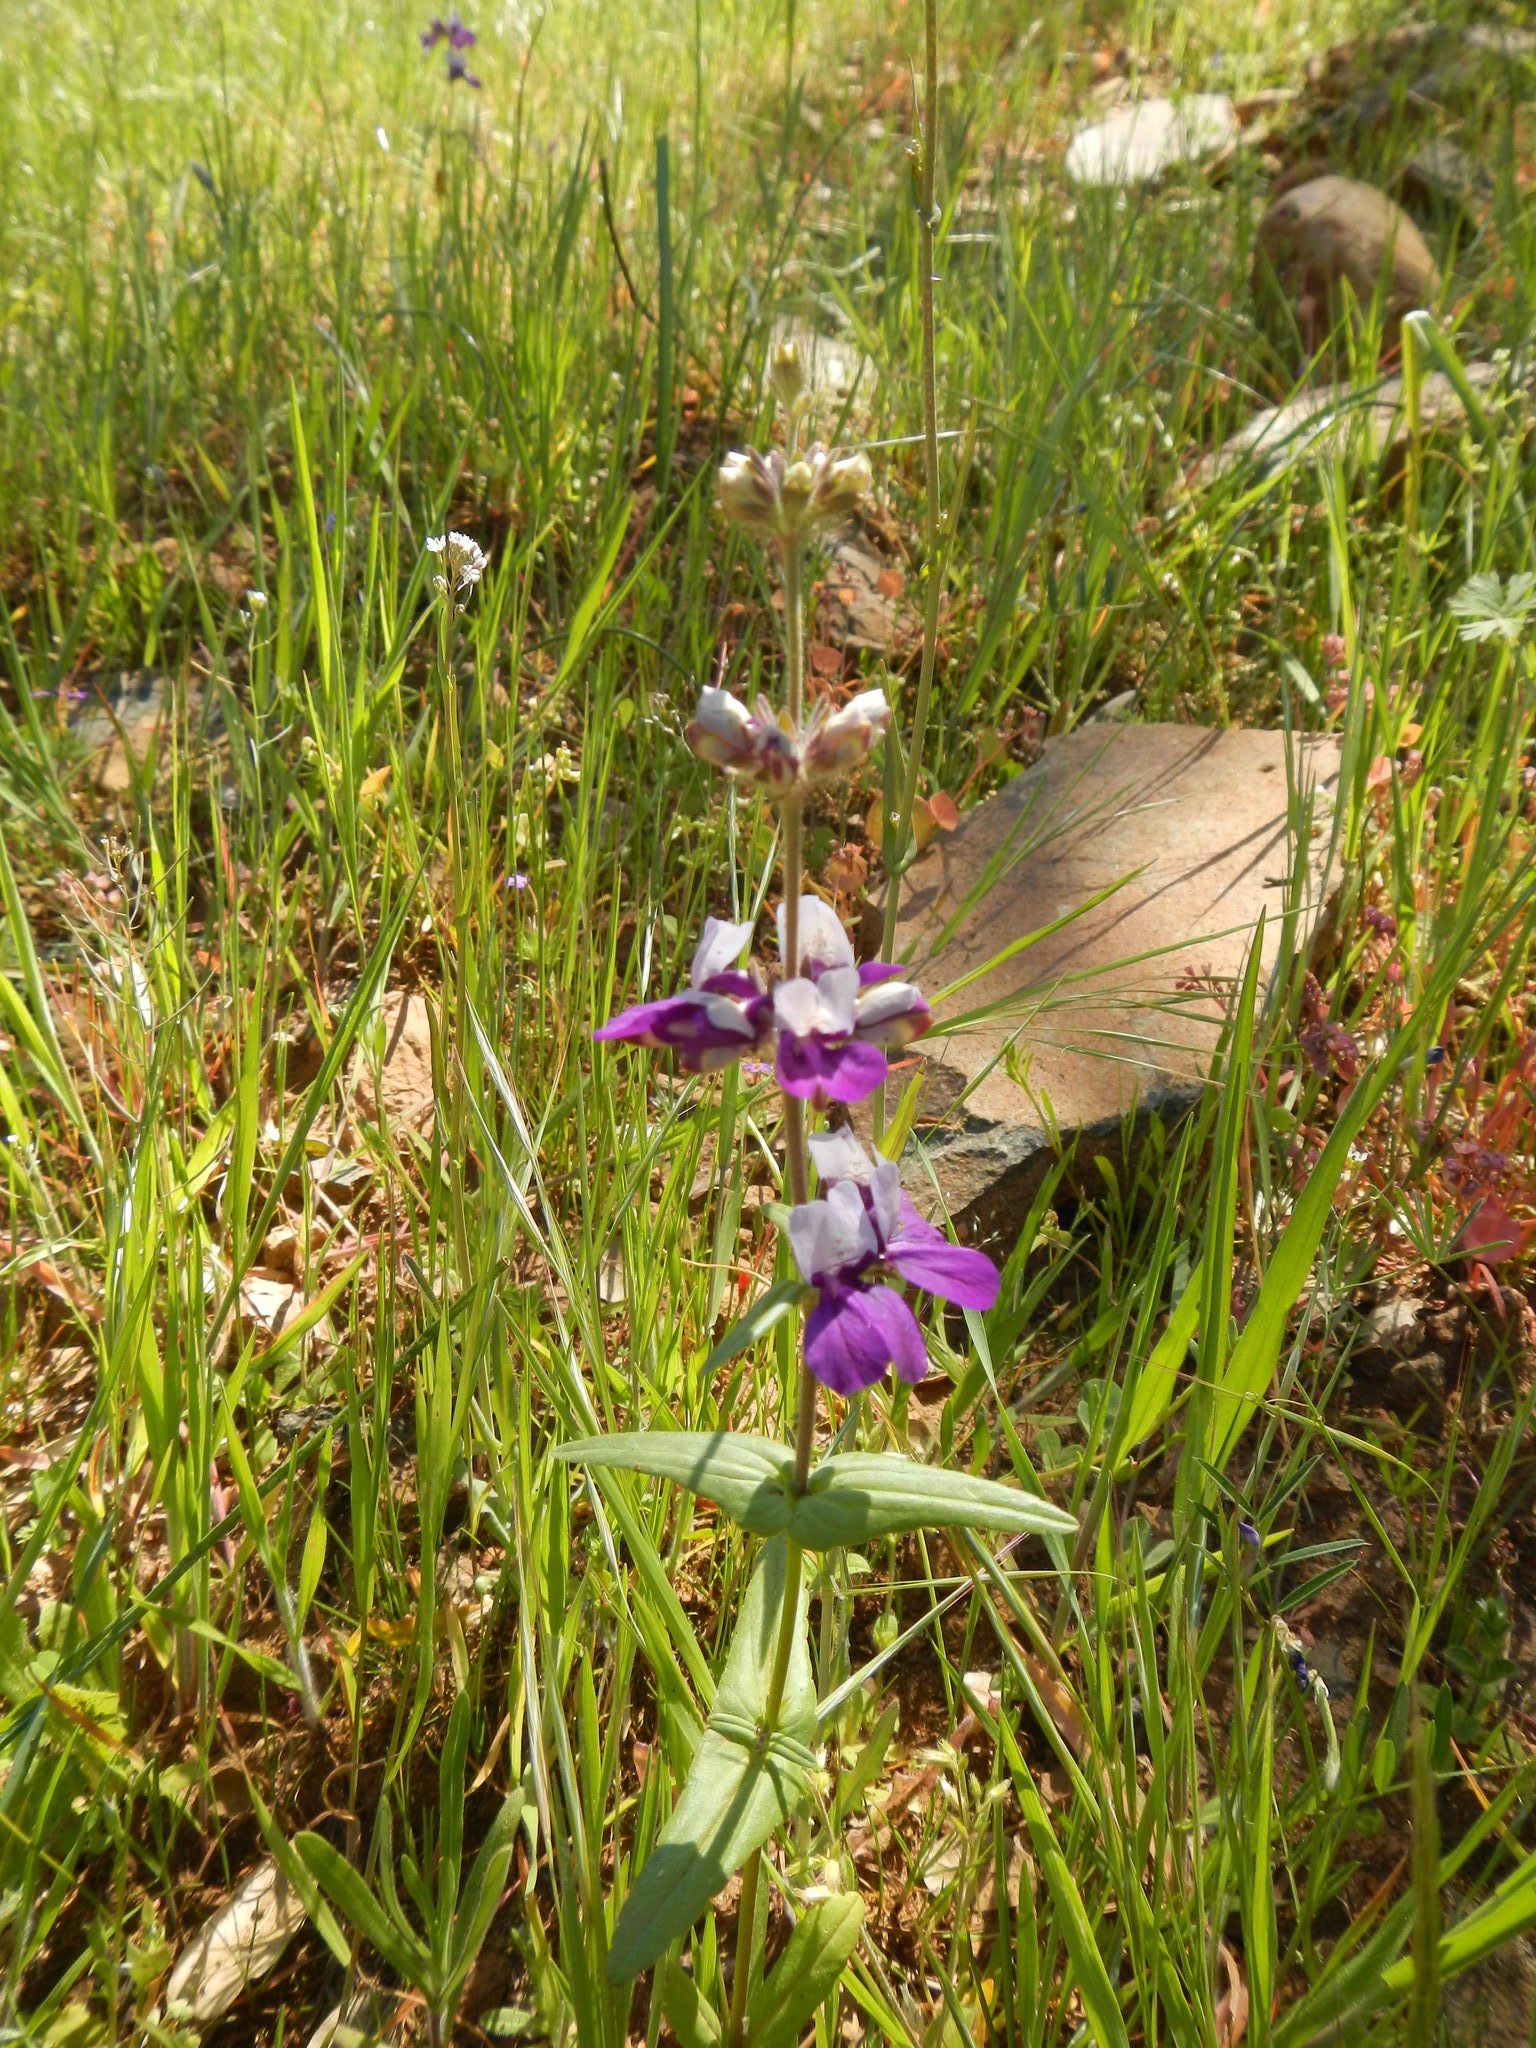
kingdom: Plantae
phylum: Tracheophyta
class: Magnoliopsida
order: Lamiales
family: Plantaginaceae
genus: Collinsia
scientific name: Collinsia heterophylla
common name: Chinese-houses
